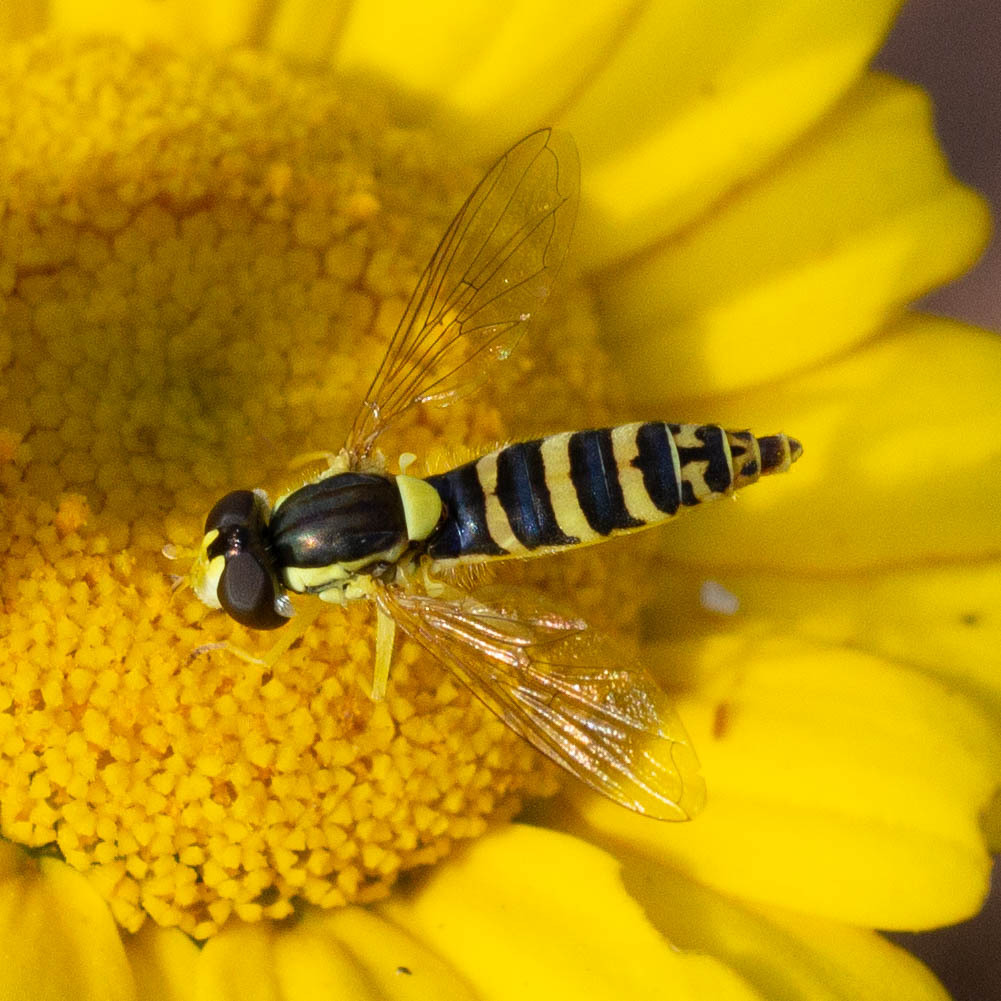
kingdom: Animalia
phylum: Arthropoda
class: Insecta
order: Diptera
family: Syrphidae
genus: Sphaerophoria
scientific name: Sphaerophoria
